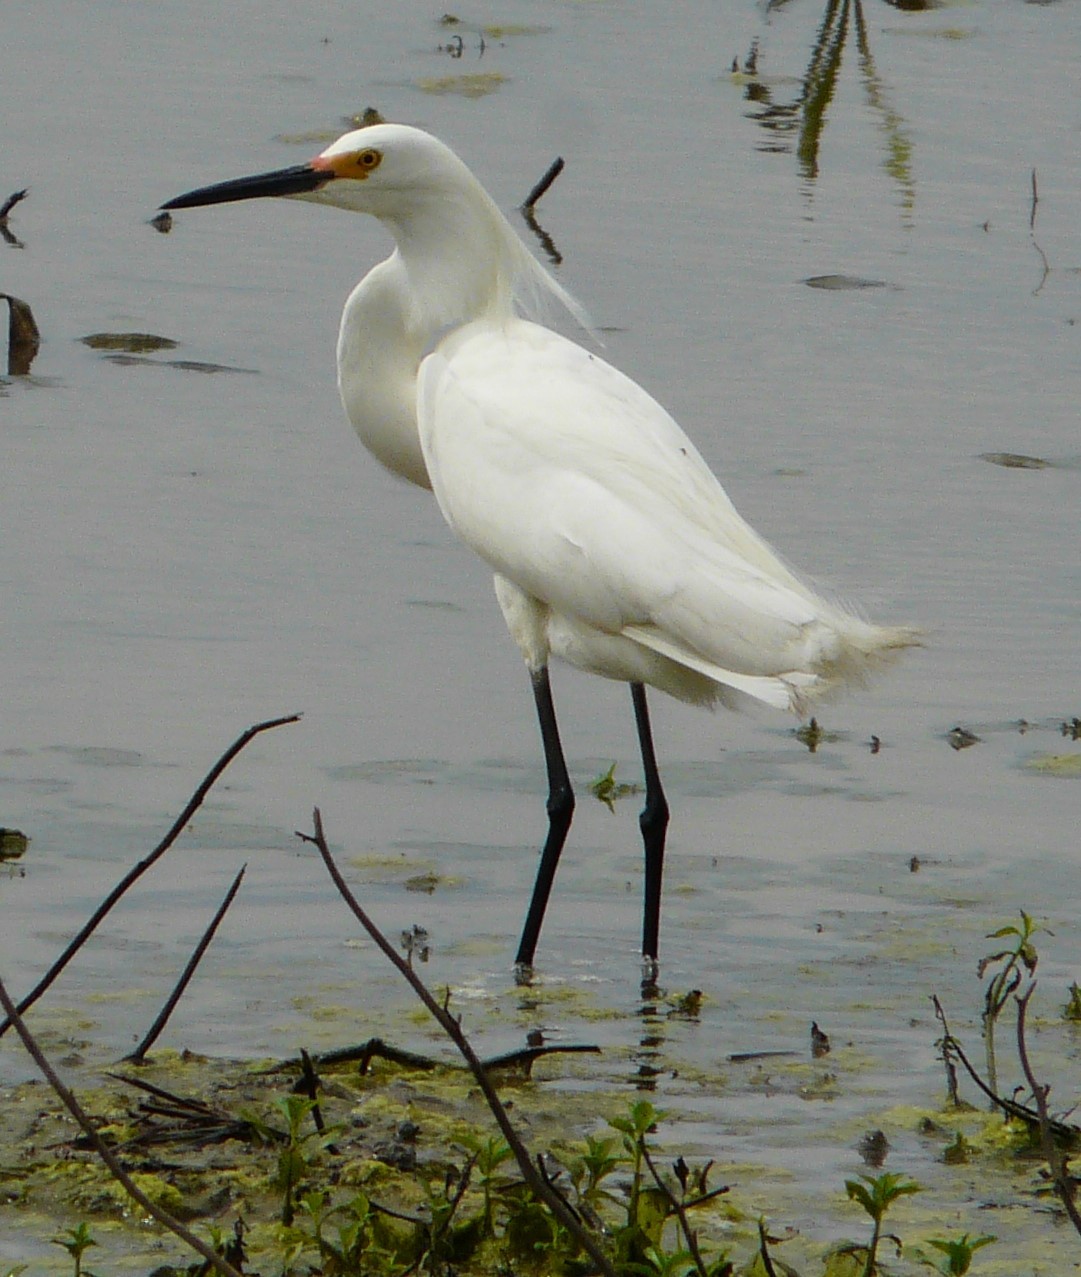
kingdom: Animalia
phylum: Chordata
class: Aves
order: Pelecaniformes
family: Ardeidae
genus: Egretta
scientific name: Egretta thula
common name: Snowy egret
